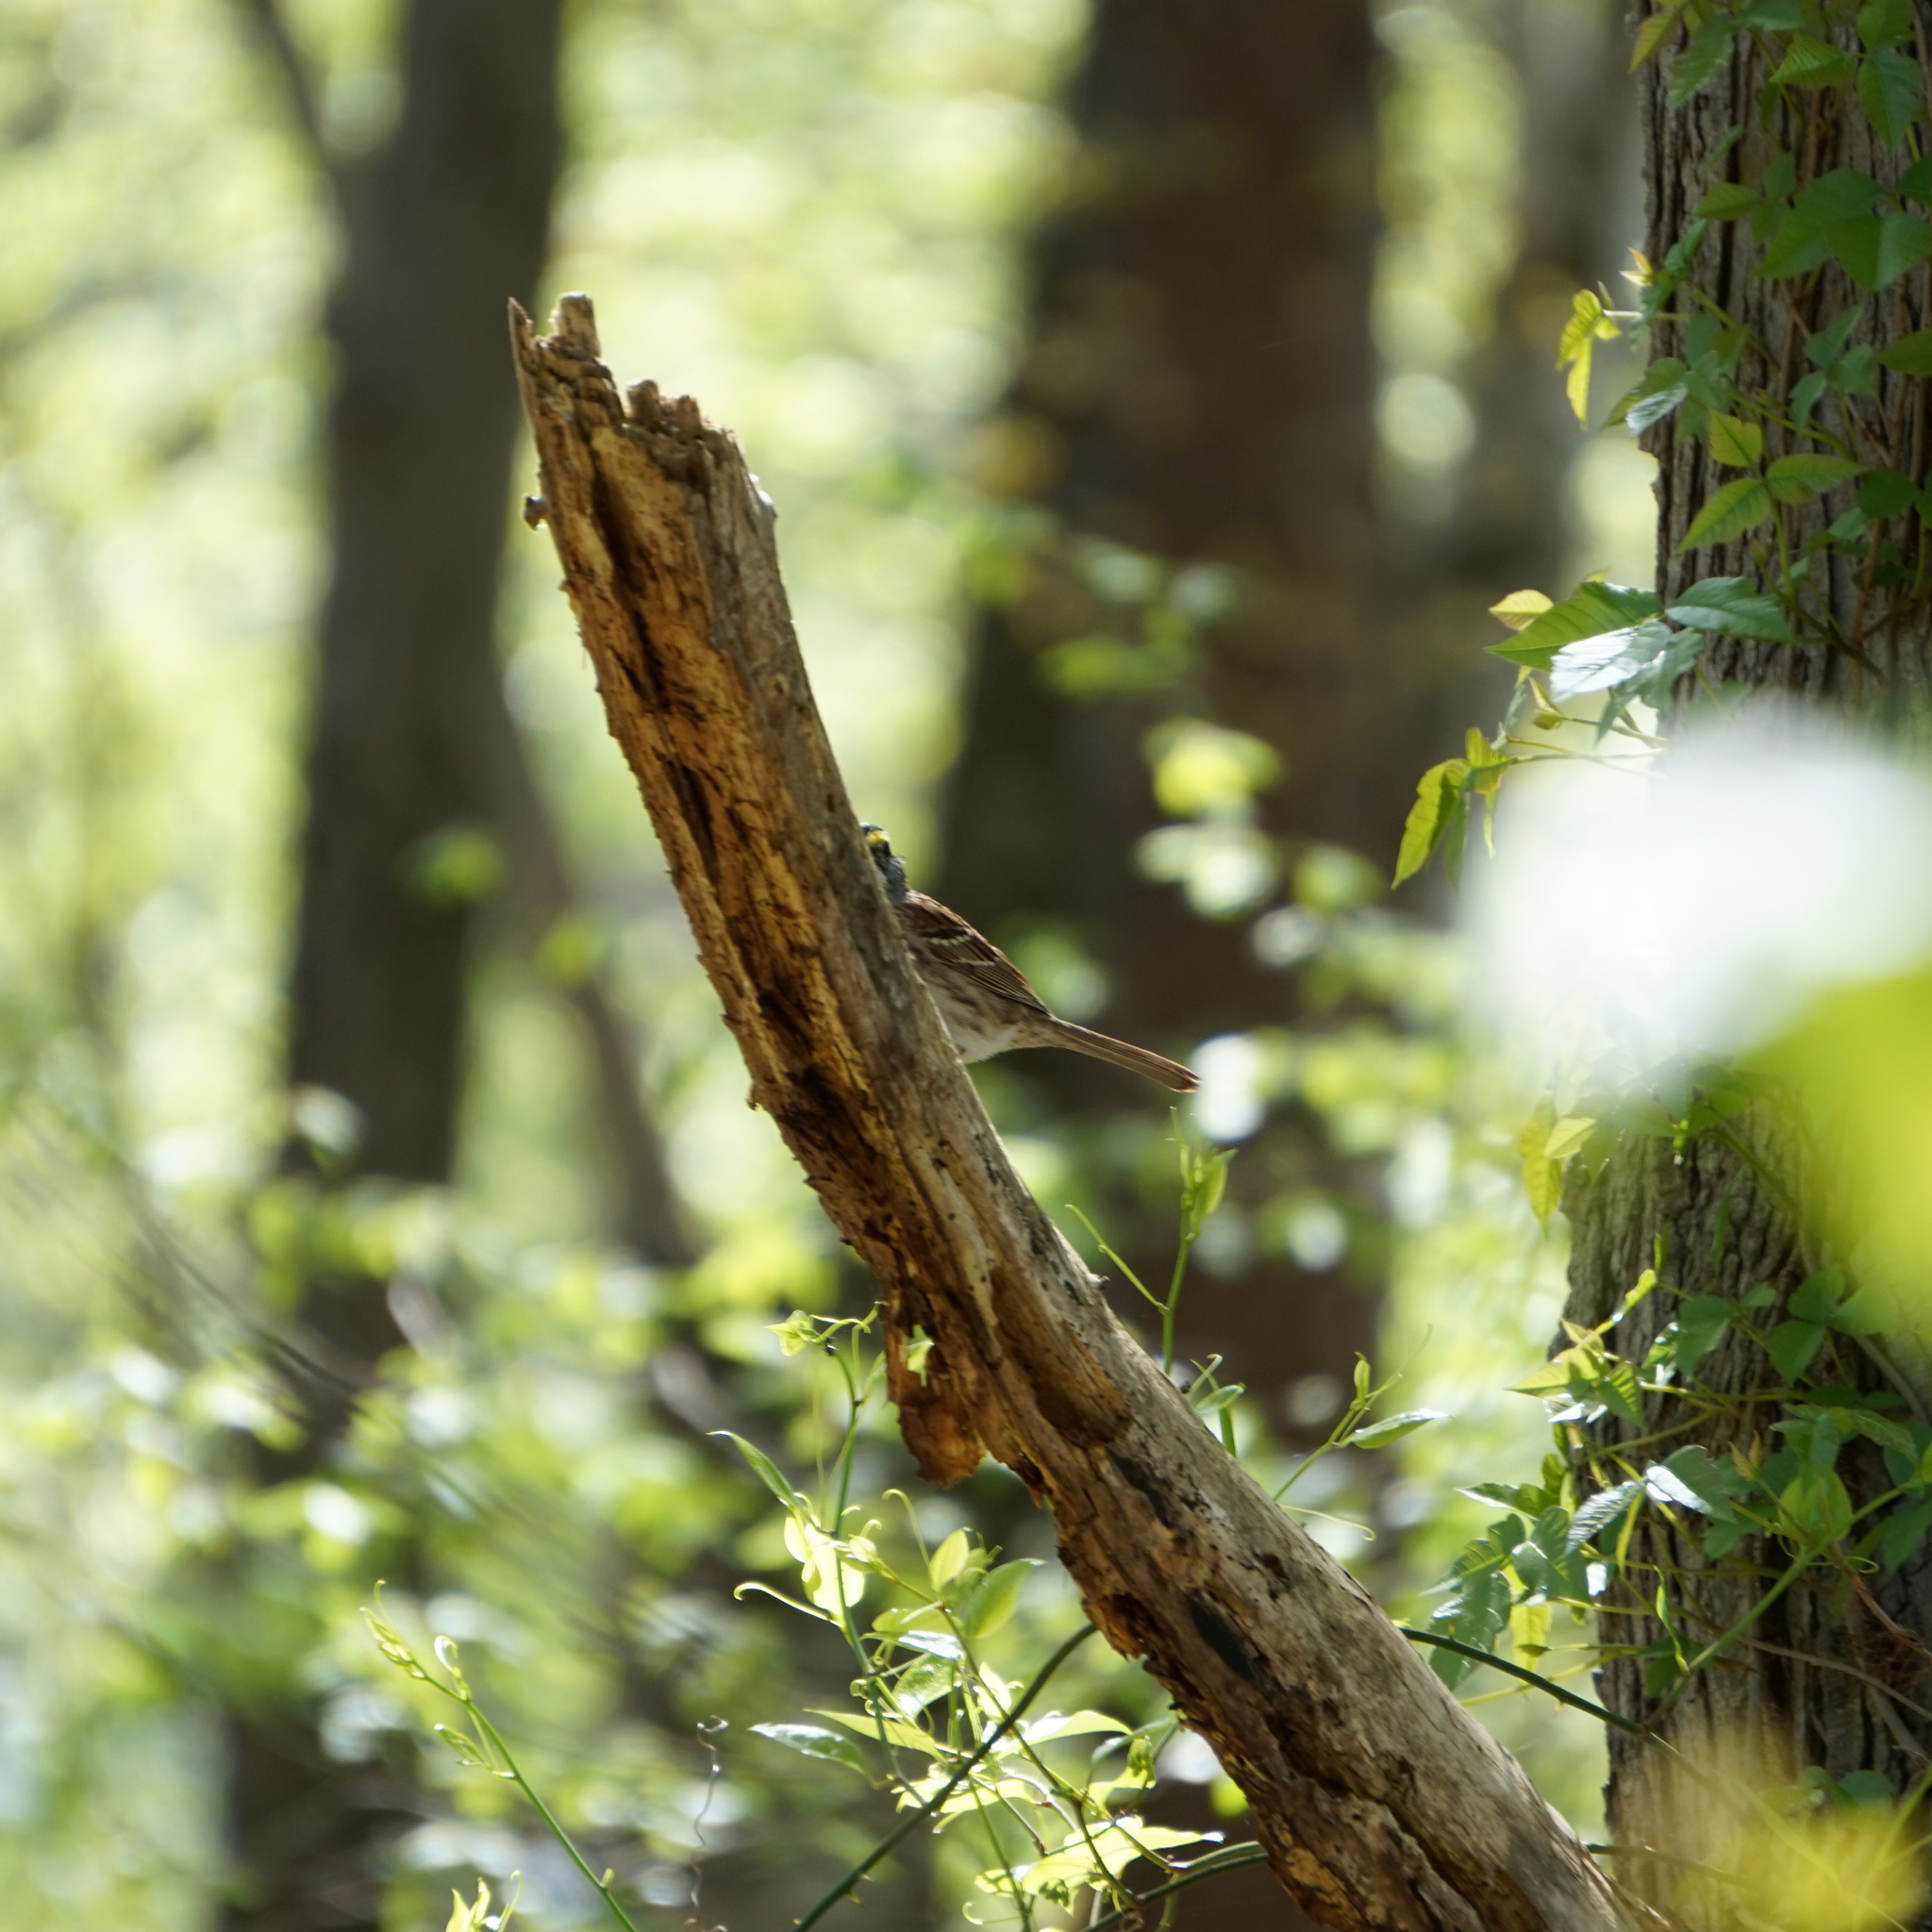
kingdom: Animalia
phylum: Chordata
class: Aves
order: Passeriformes
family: Passerellidae
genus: Zonotrichia
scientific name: Zonotrichia albicollis
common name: White-throated sparrow
